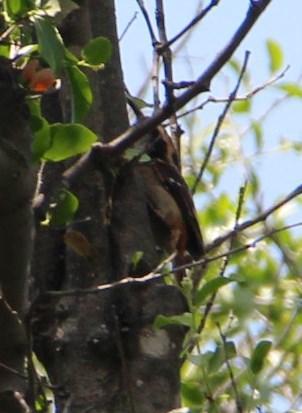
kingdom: Animalia
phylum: Chordata
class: Aves
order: Passeriformes
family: Furnariidae
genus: Aphrastura
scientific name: Aphrastura spinicauda
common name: Thorn-tailed rayadito
